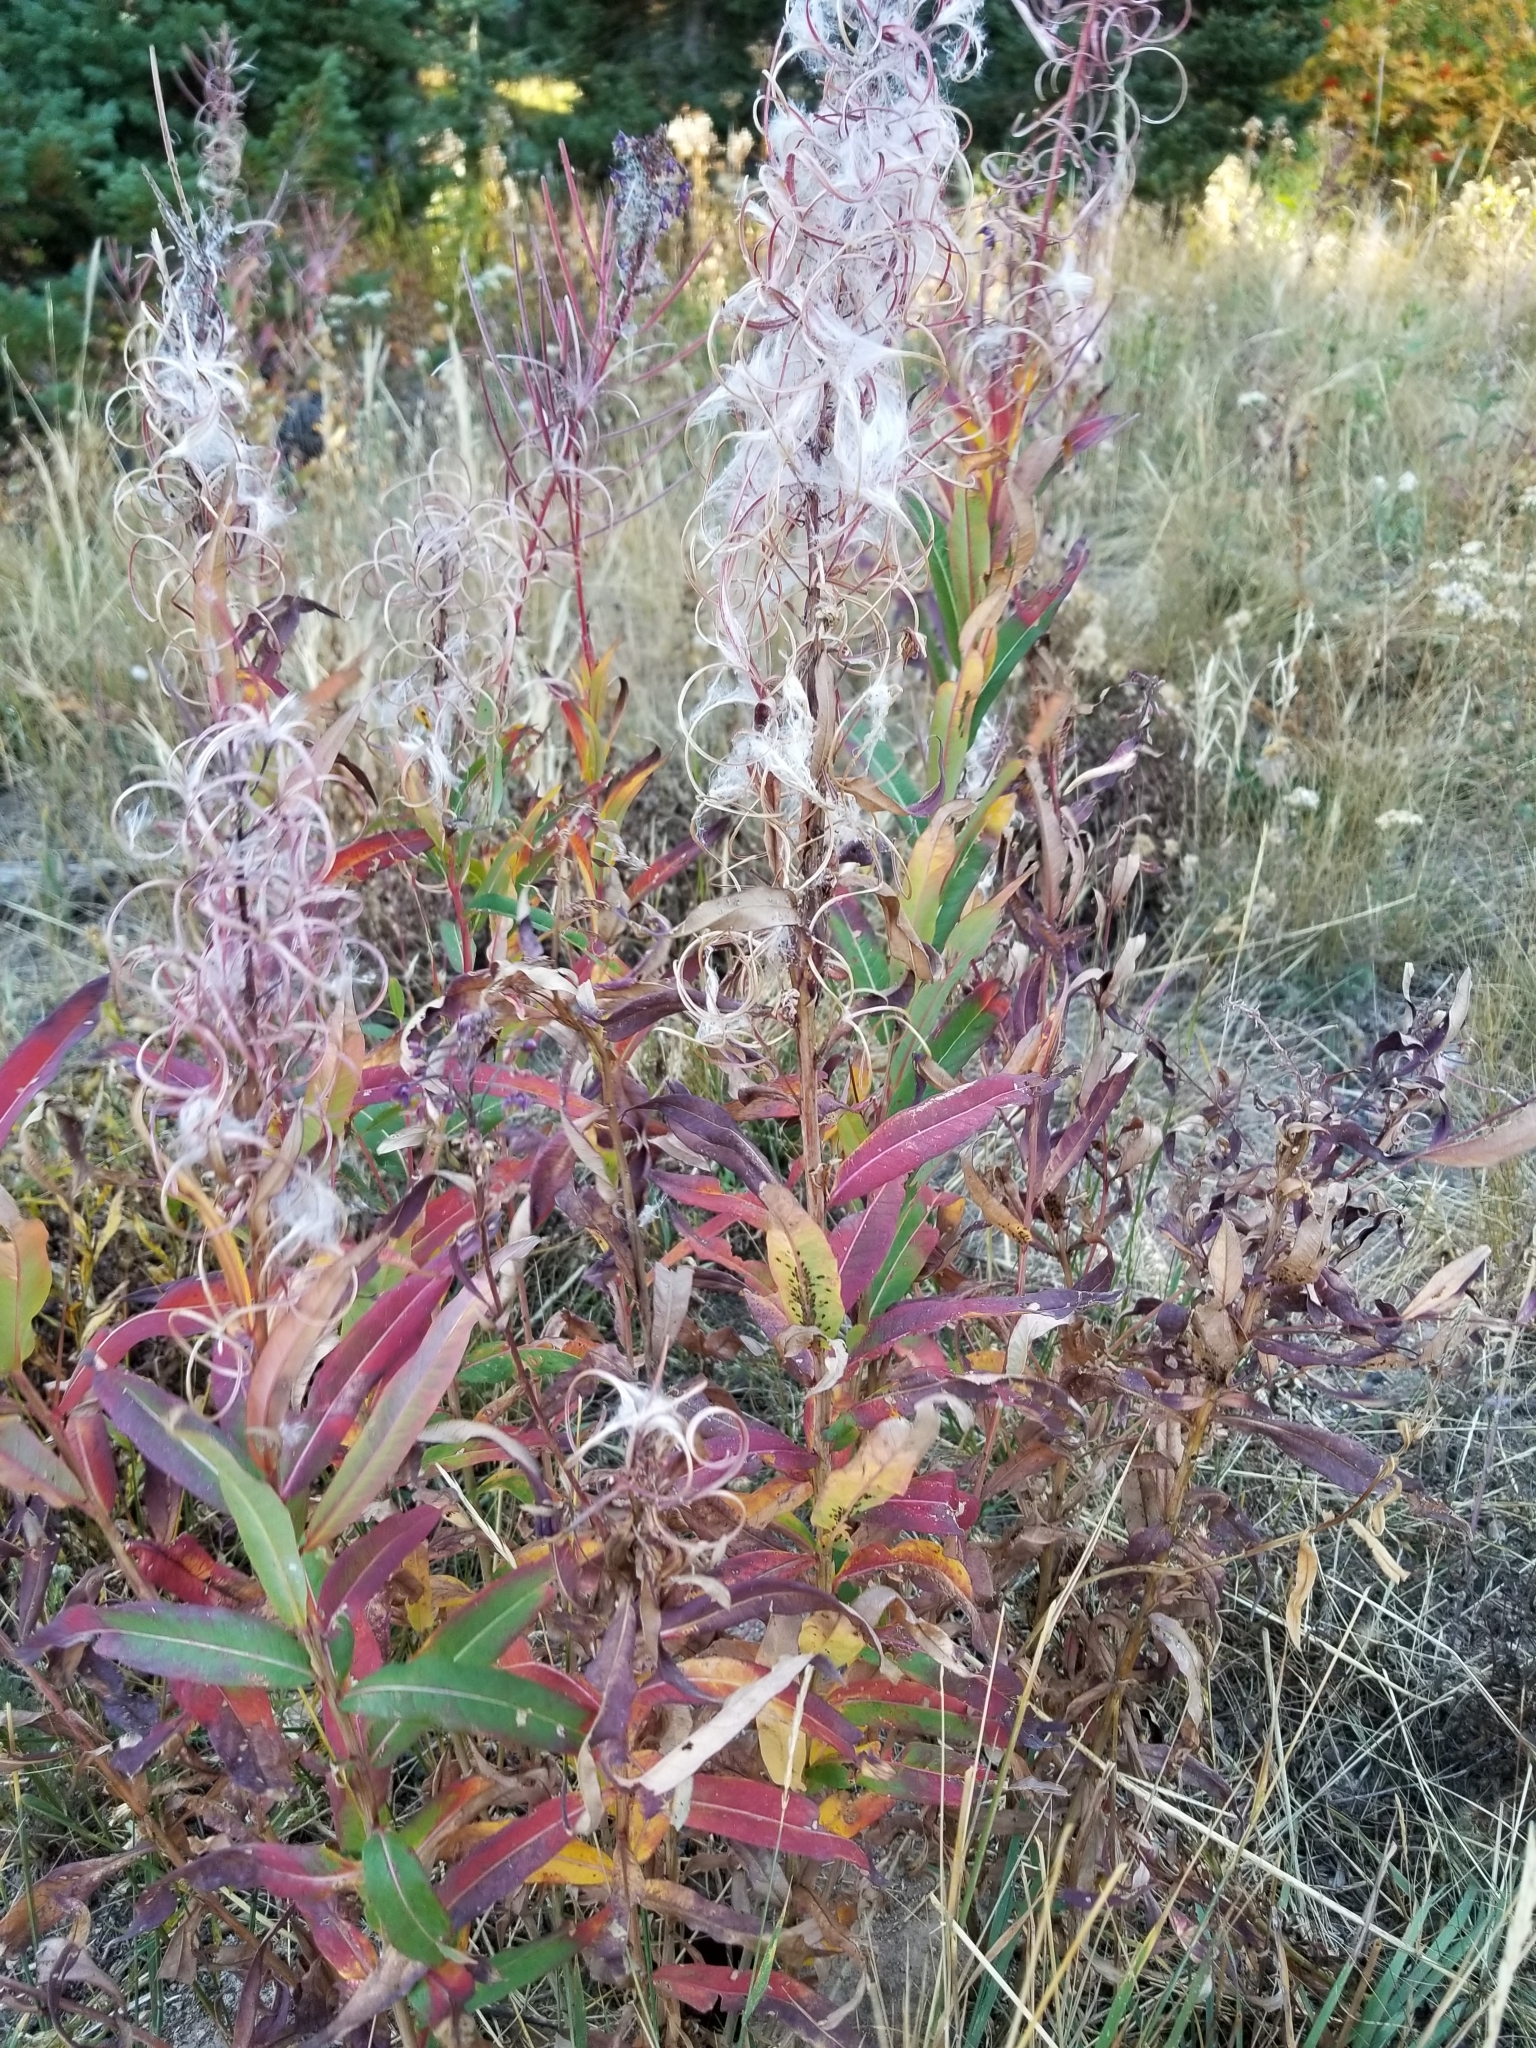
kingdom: Plantae
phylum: Tracheophyta
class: Magnoliopsida
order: Myrtales
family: Onagraceae
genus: Chamaenerion
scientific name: Chamaenerion angustifolium
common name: Fireweed
